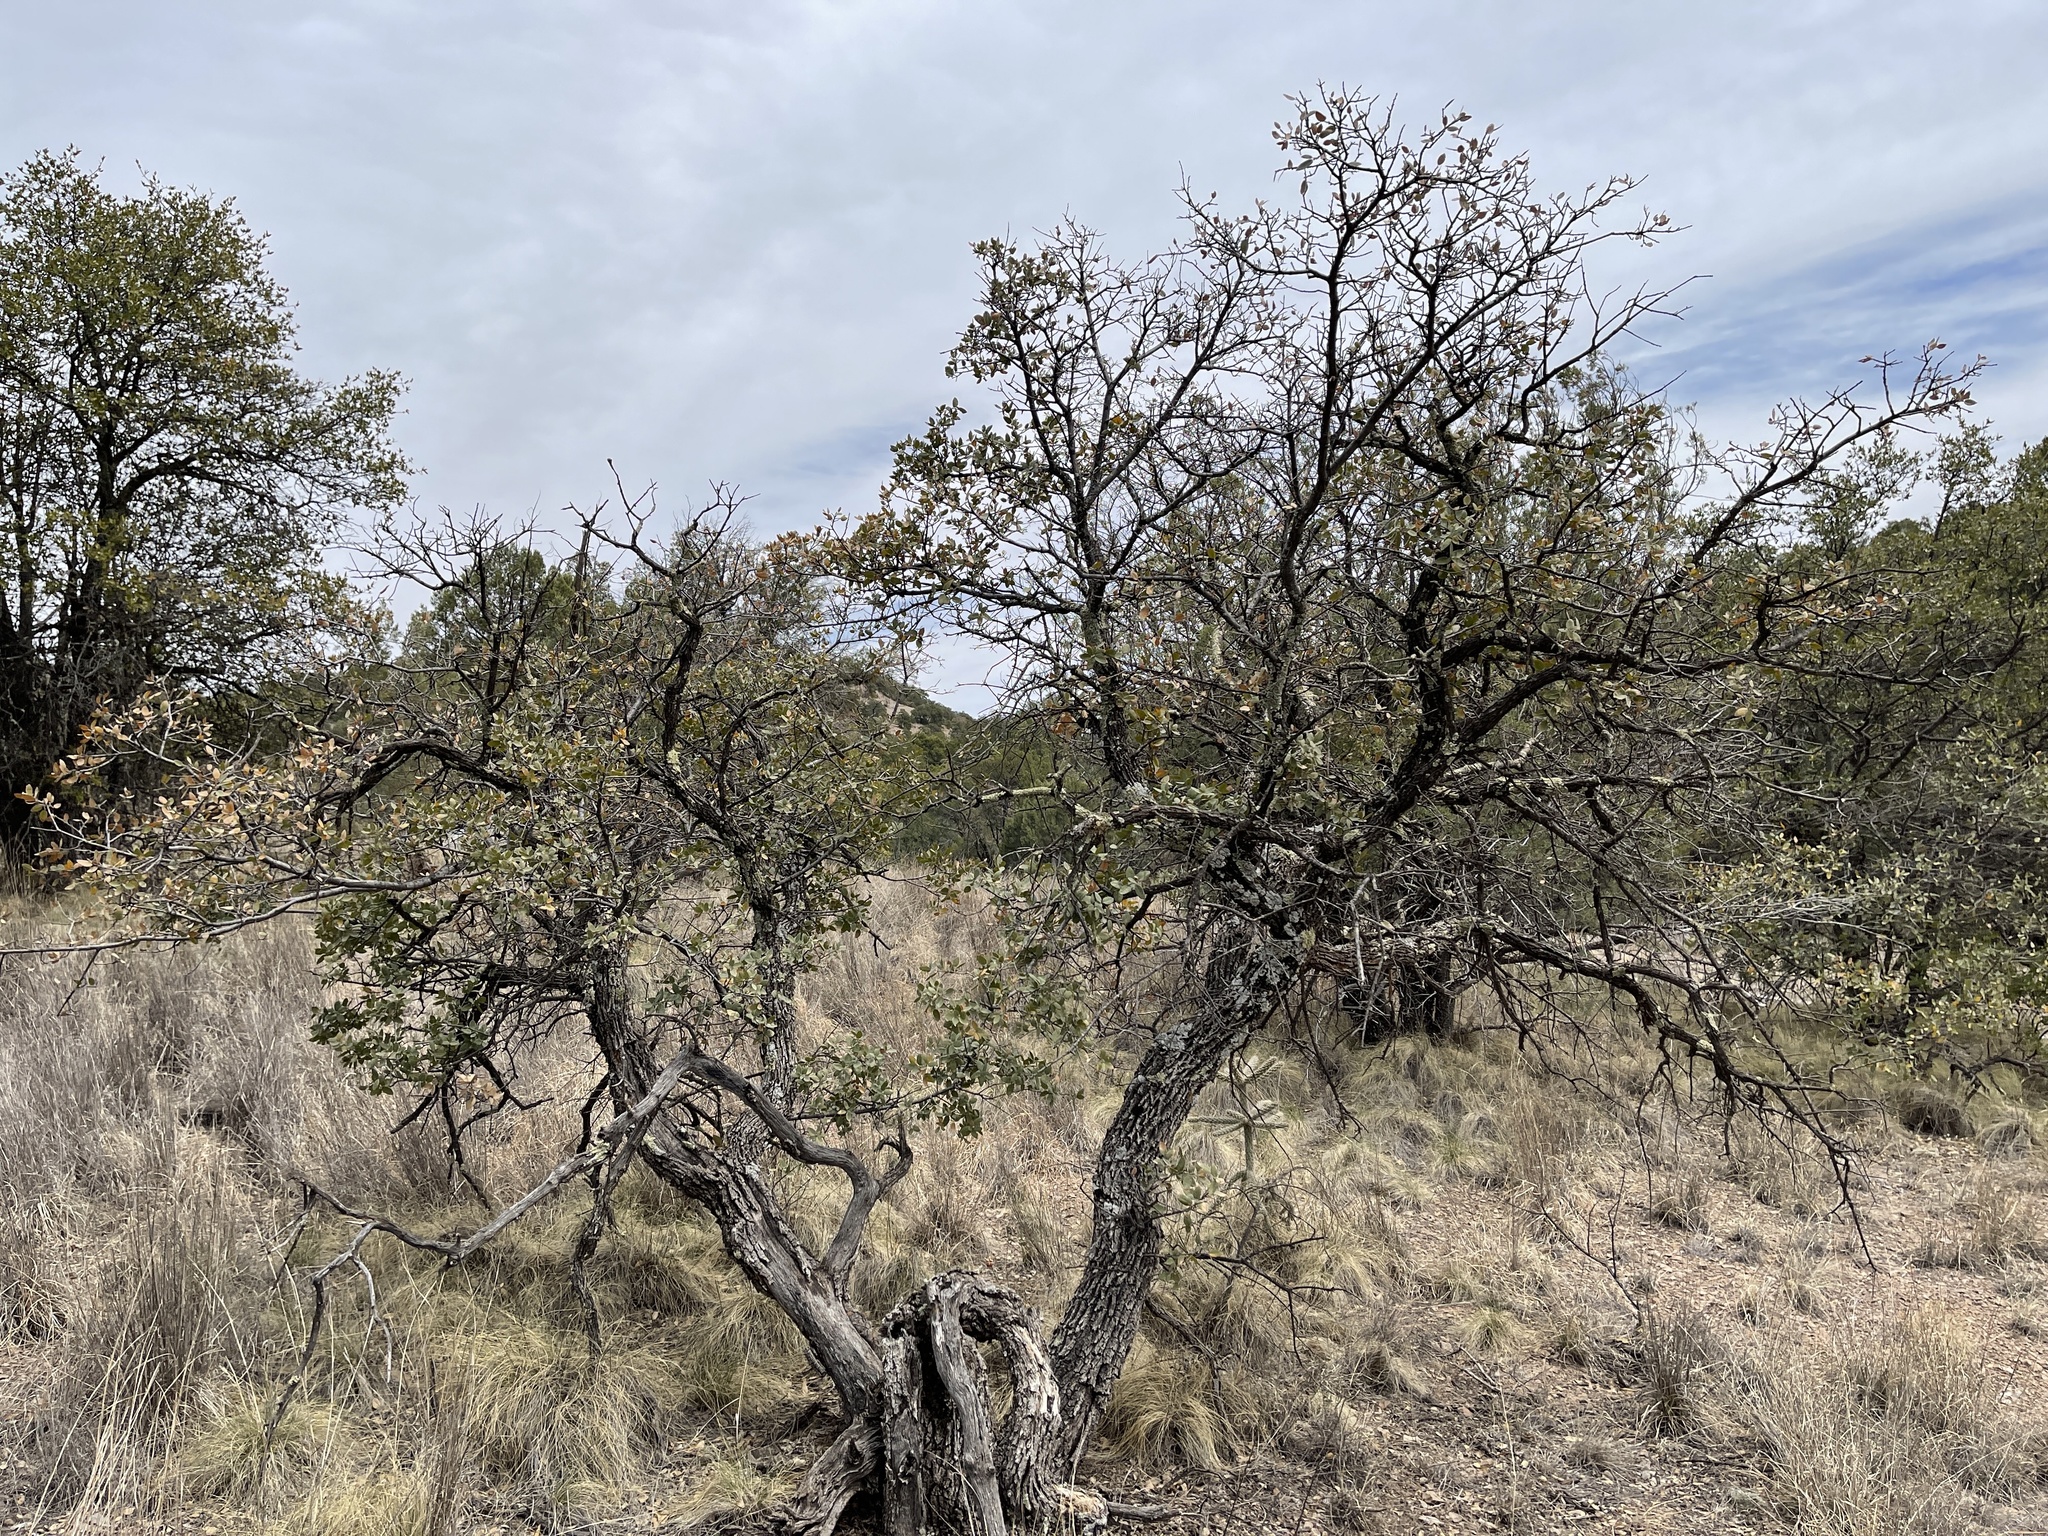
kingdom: Plantae
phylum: Tracheophyta
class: Magnoliopsida
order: Fagales
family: Fagaceae
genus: Quercus
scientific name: Quercus grisea
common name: Gray oak
